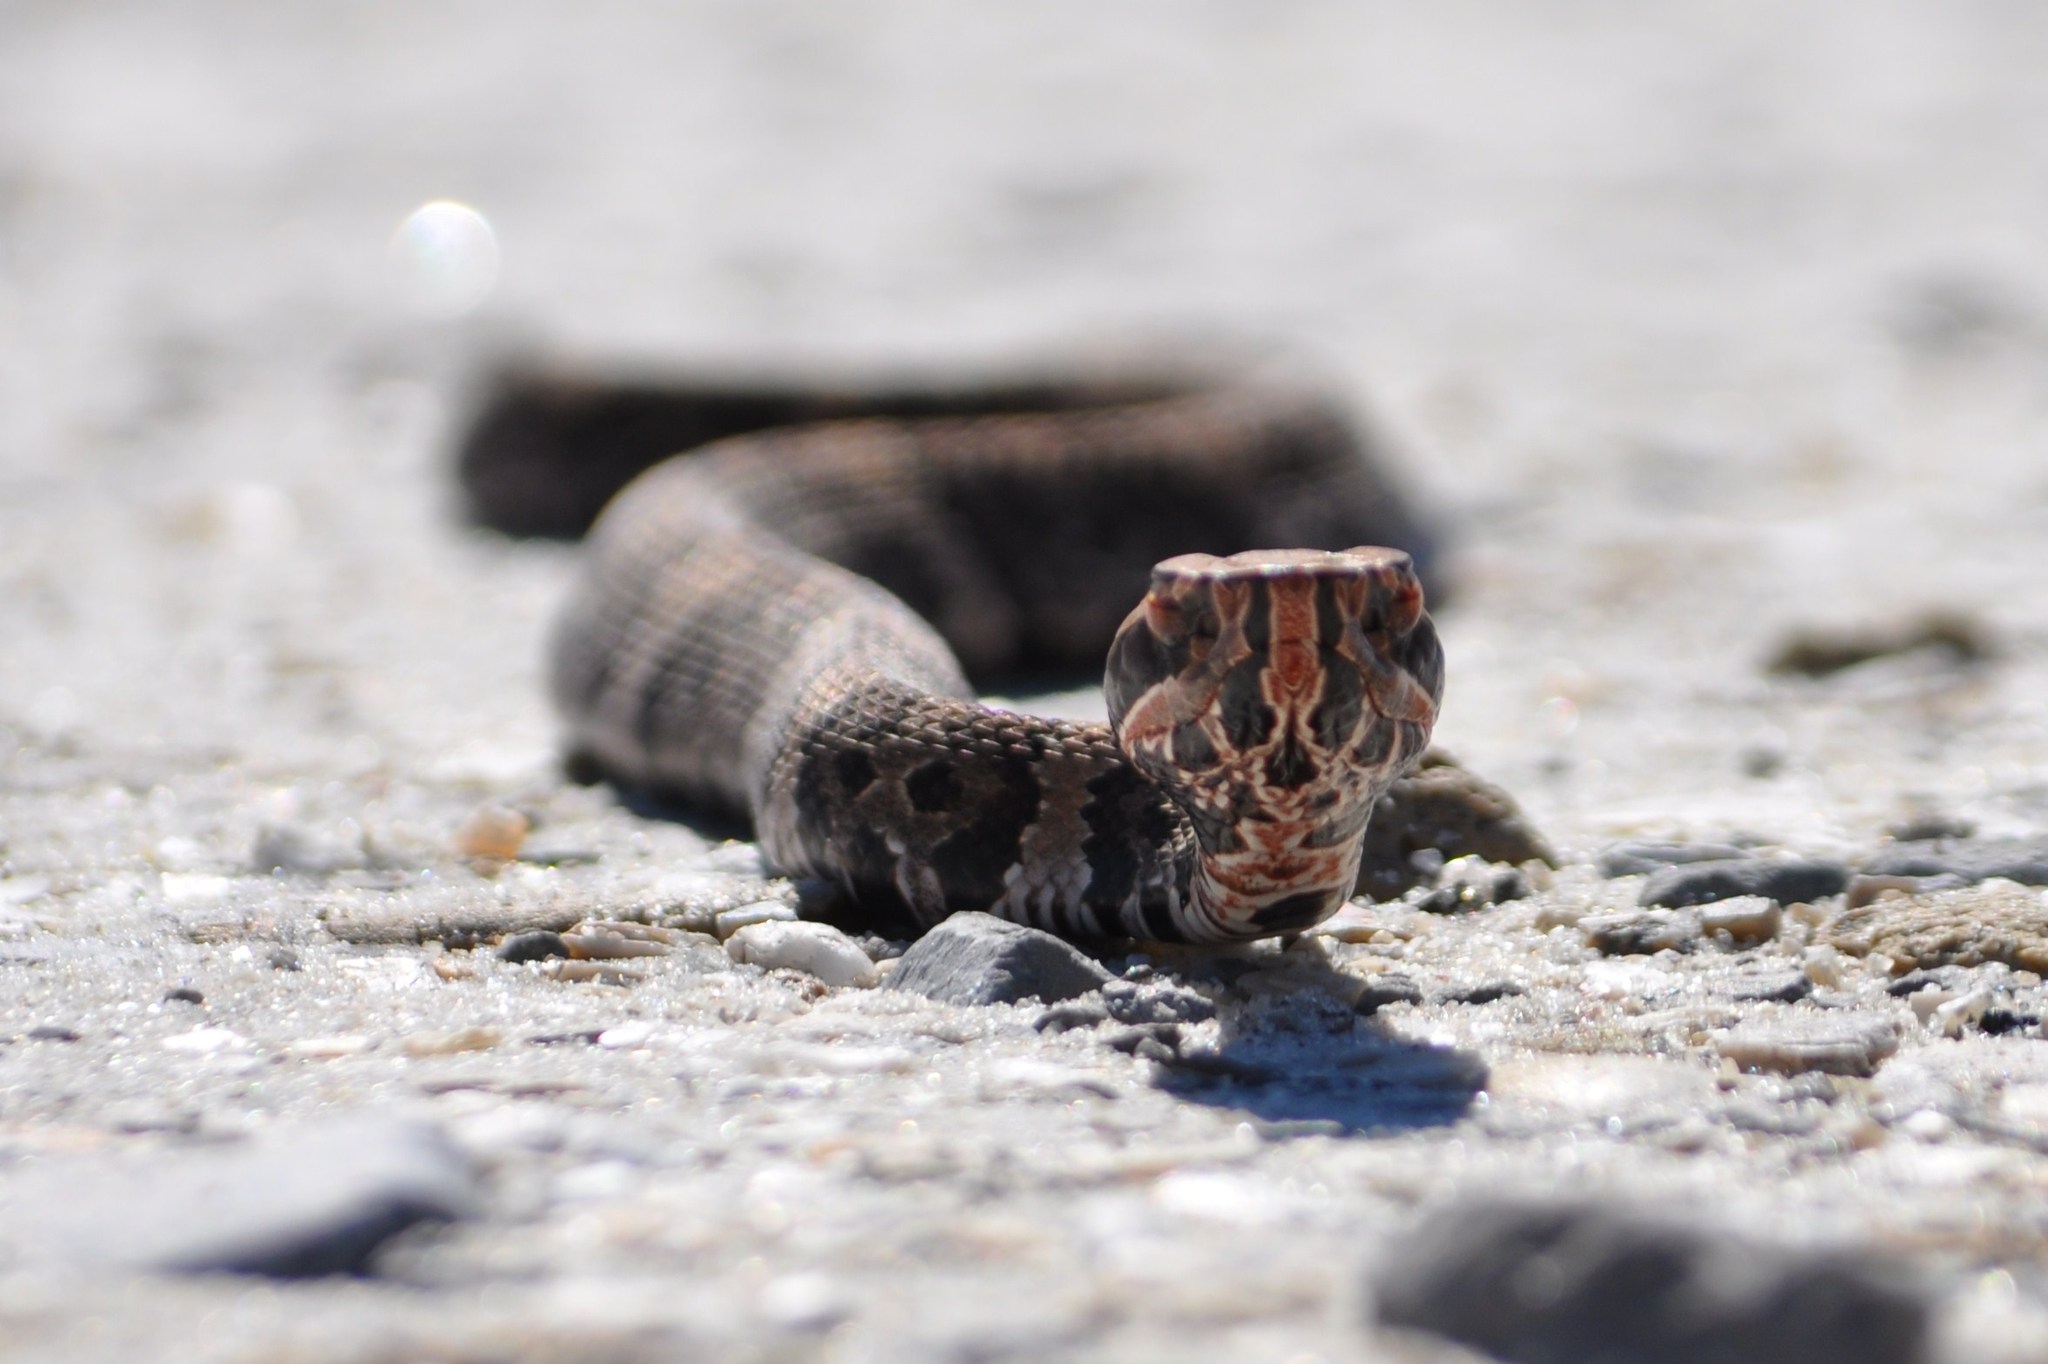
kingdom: Animalia
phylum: Chordata
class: Squamata
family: Viperidae
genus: Agkistrodon
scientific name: Agkistrodon conanti
